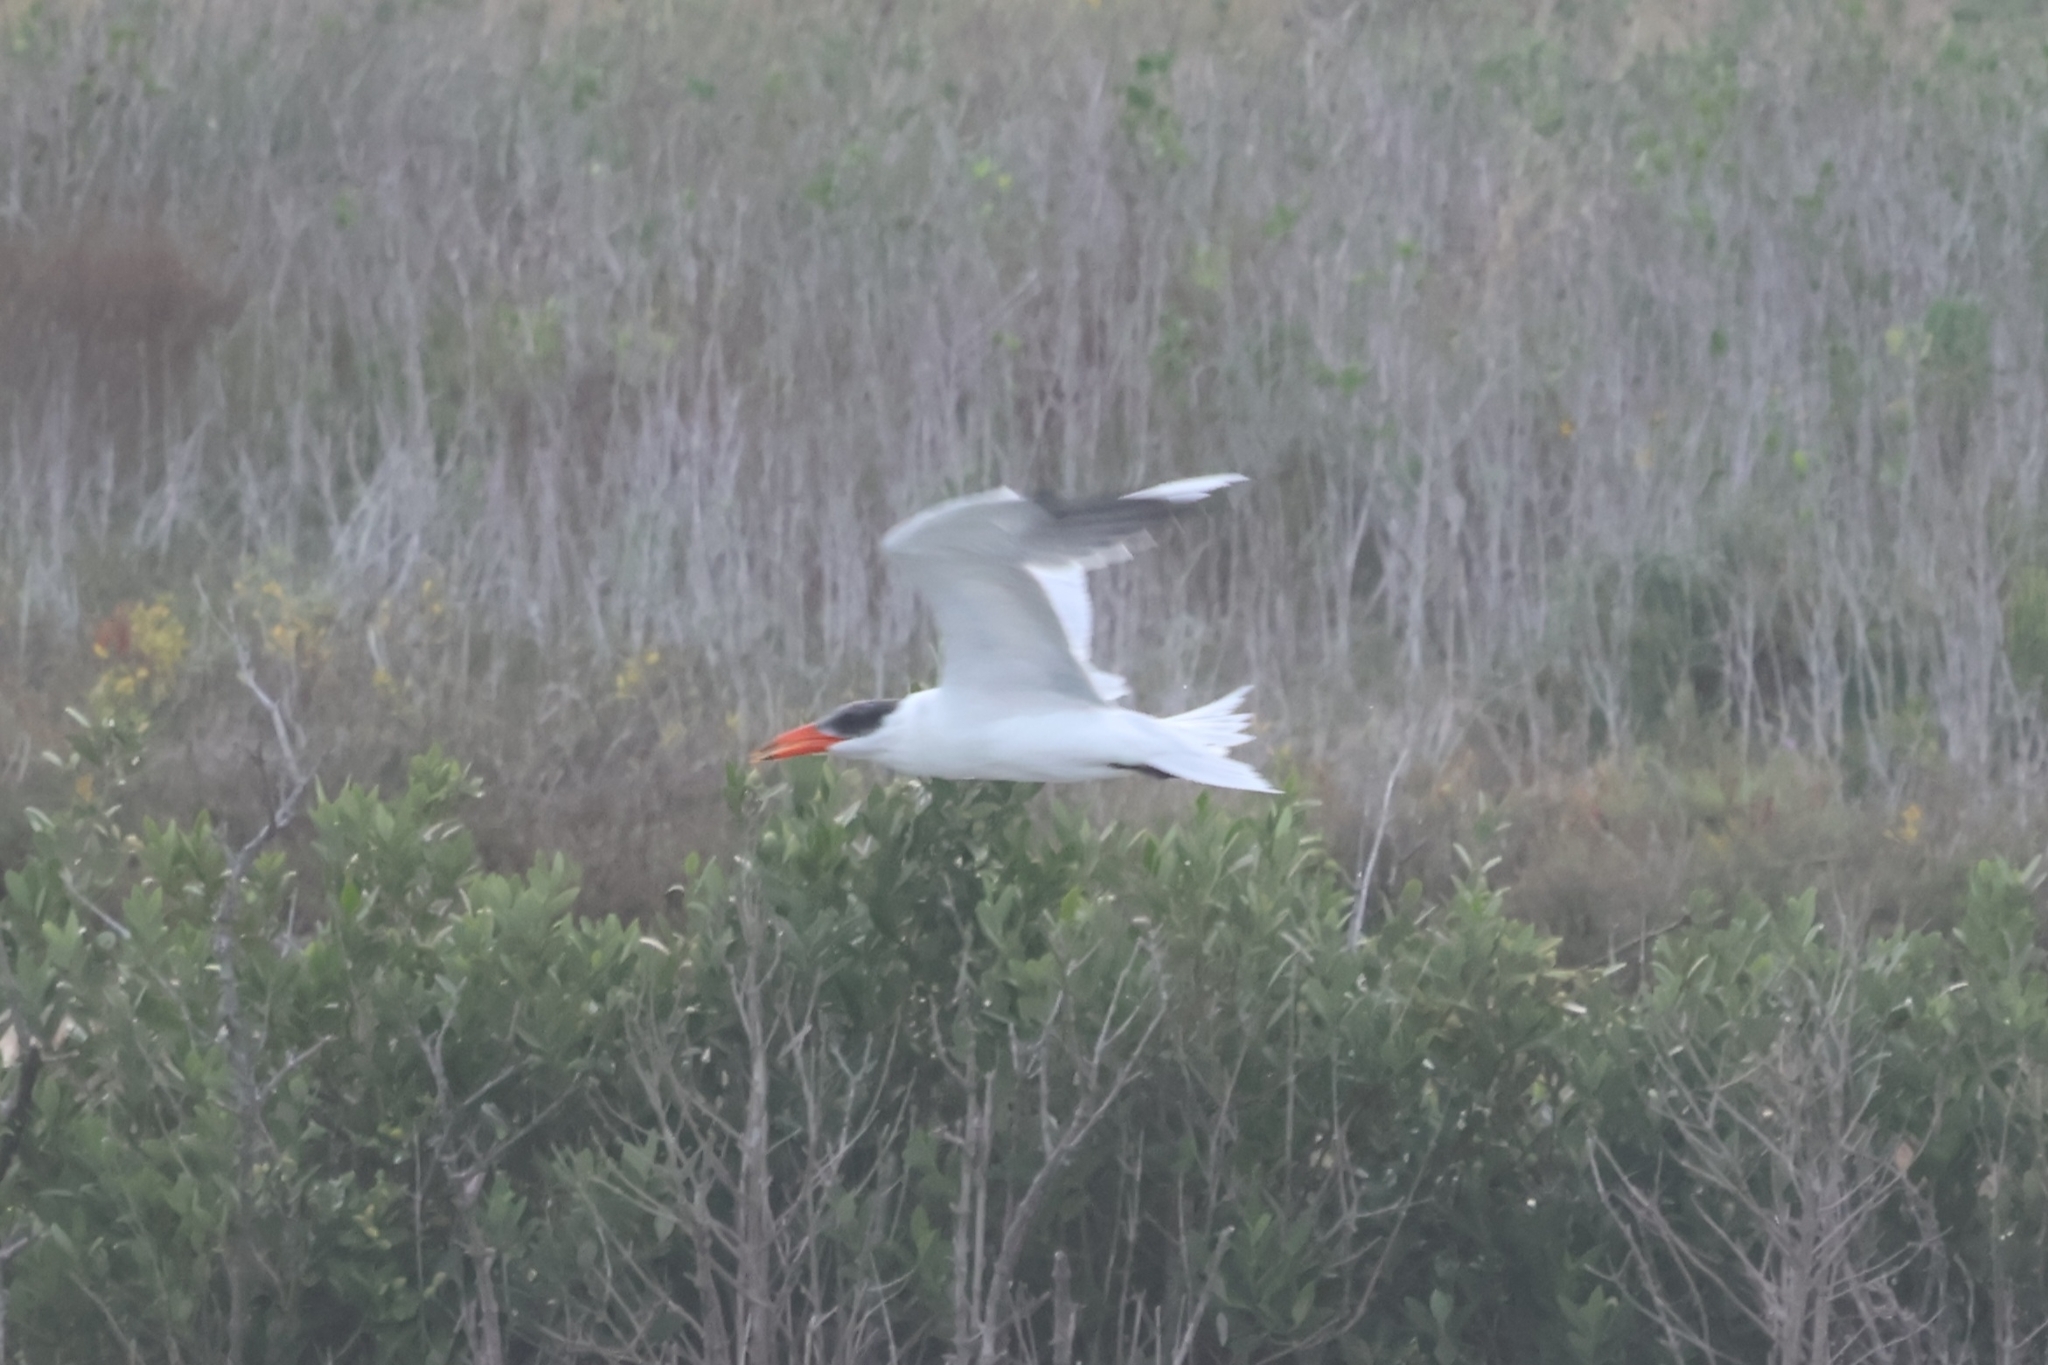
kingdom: Animalia
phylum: Chordata
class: Aves
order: Charadriiformes
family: Laridae
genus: Hydroprogne
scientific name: Hydroprogne caspia
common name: Caspian tern
